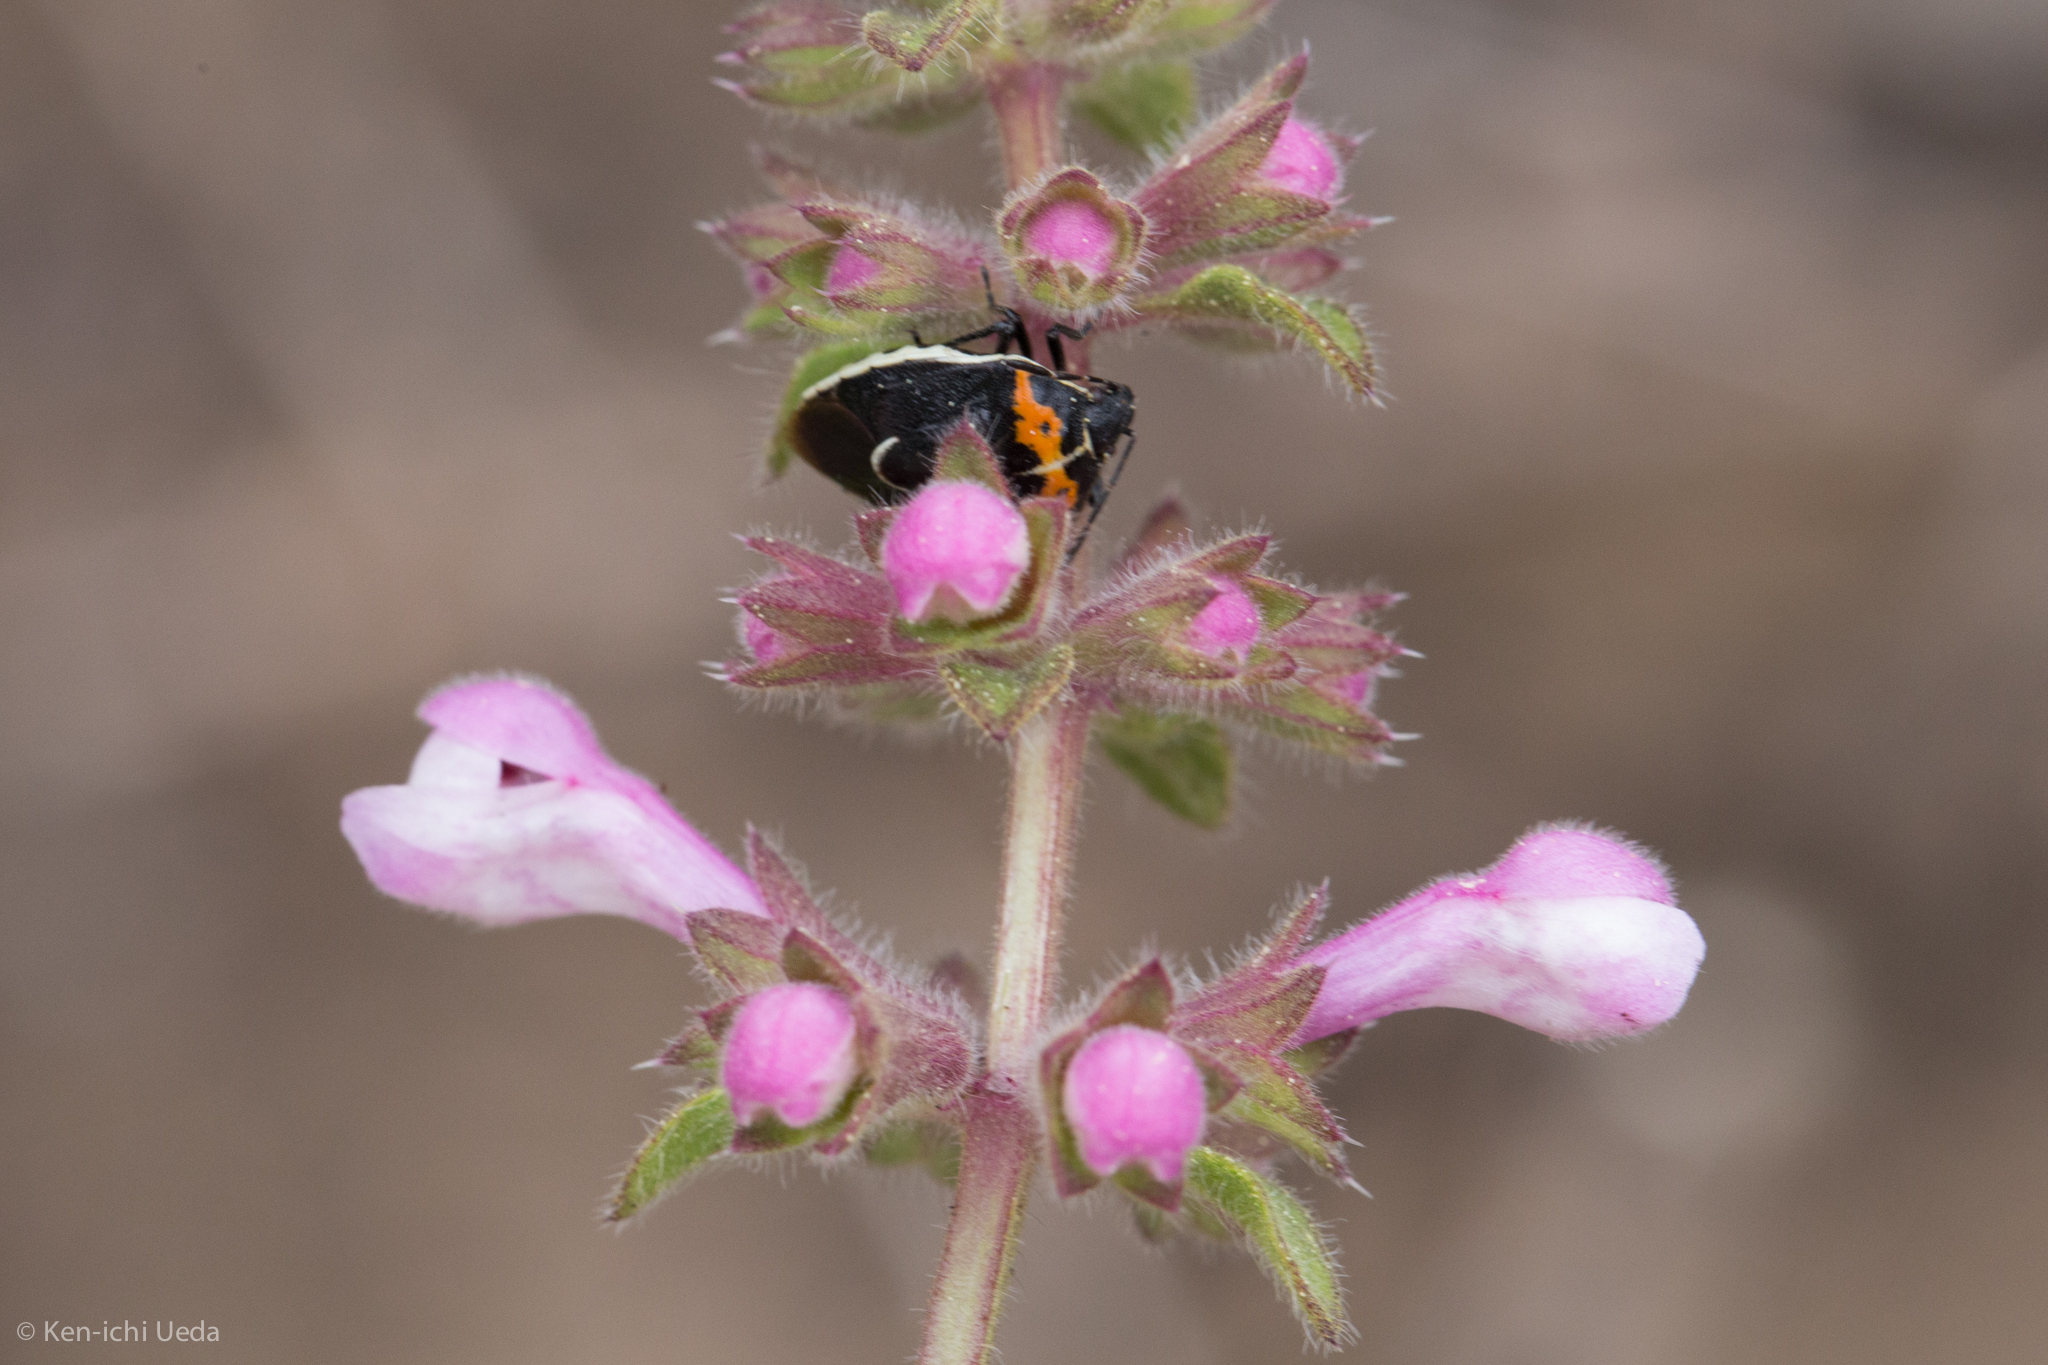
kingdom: Animalia
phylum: Arthropoda
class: Insecta
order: Hemiptera
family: Pentatomidae
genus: Cosmopepla
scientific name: Cosmopepla conspicillaris
